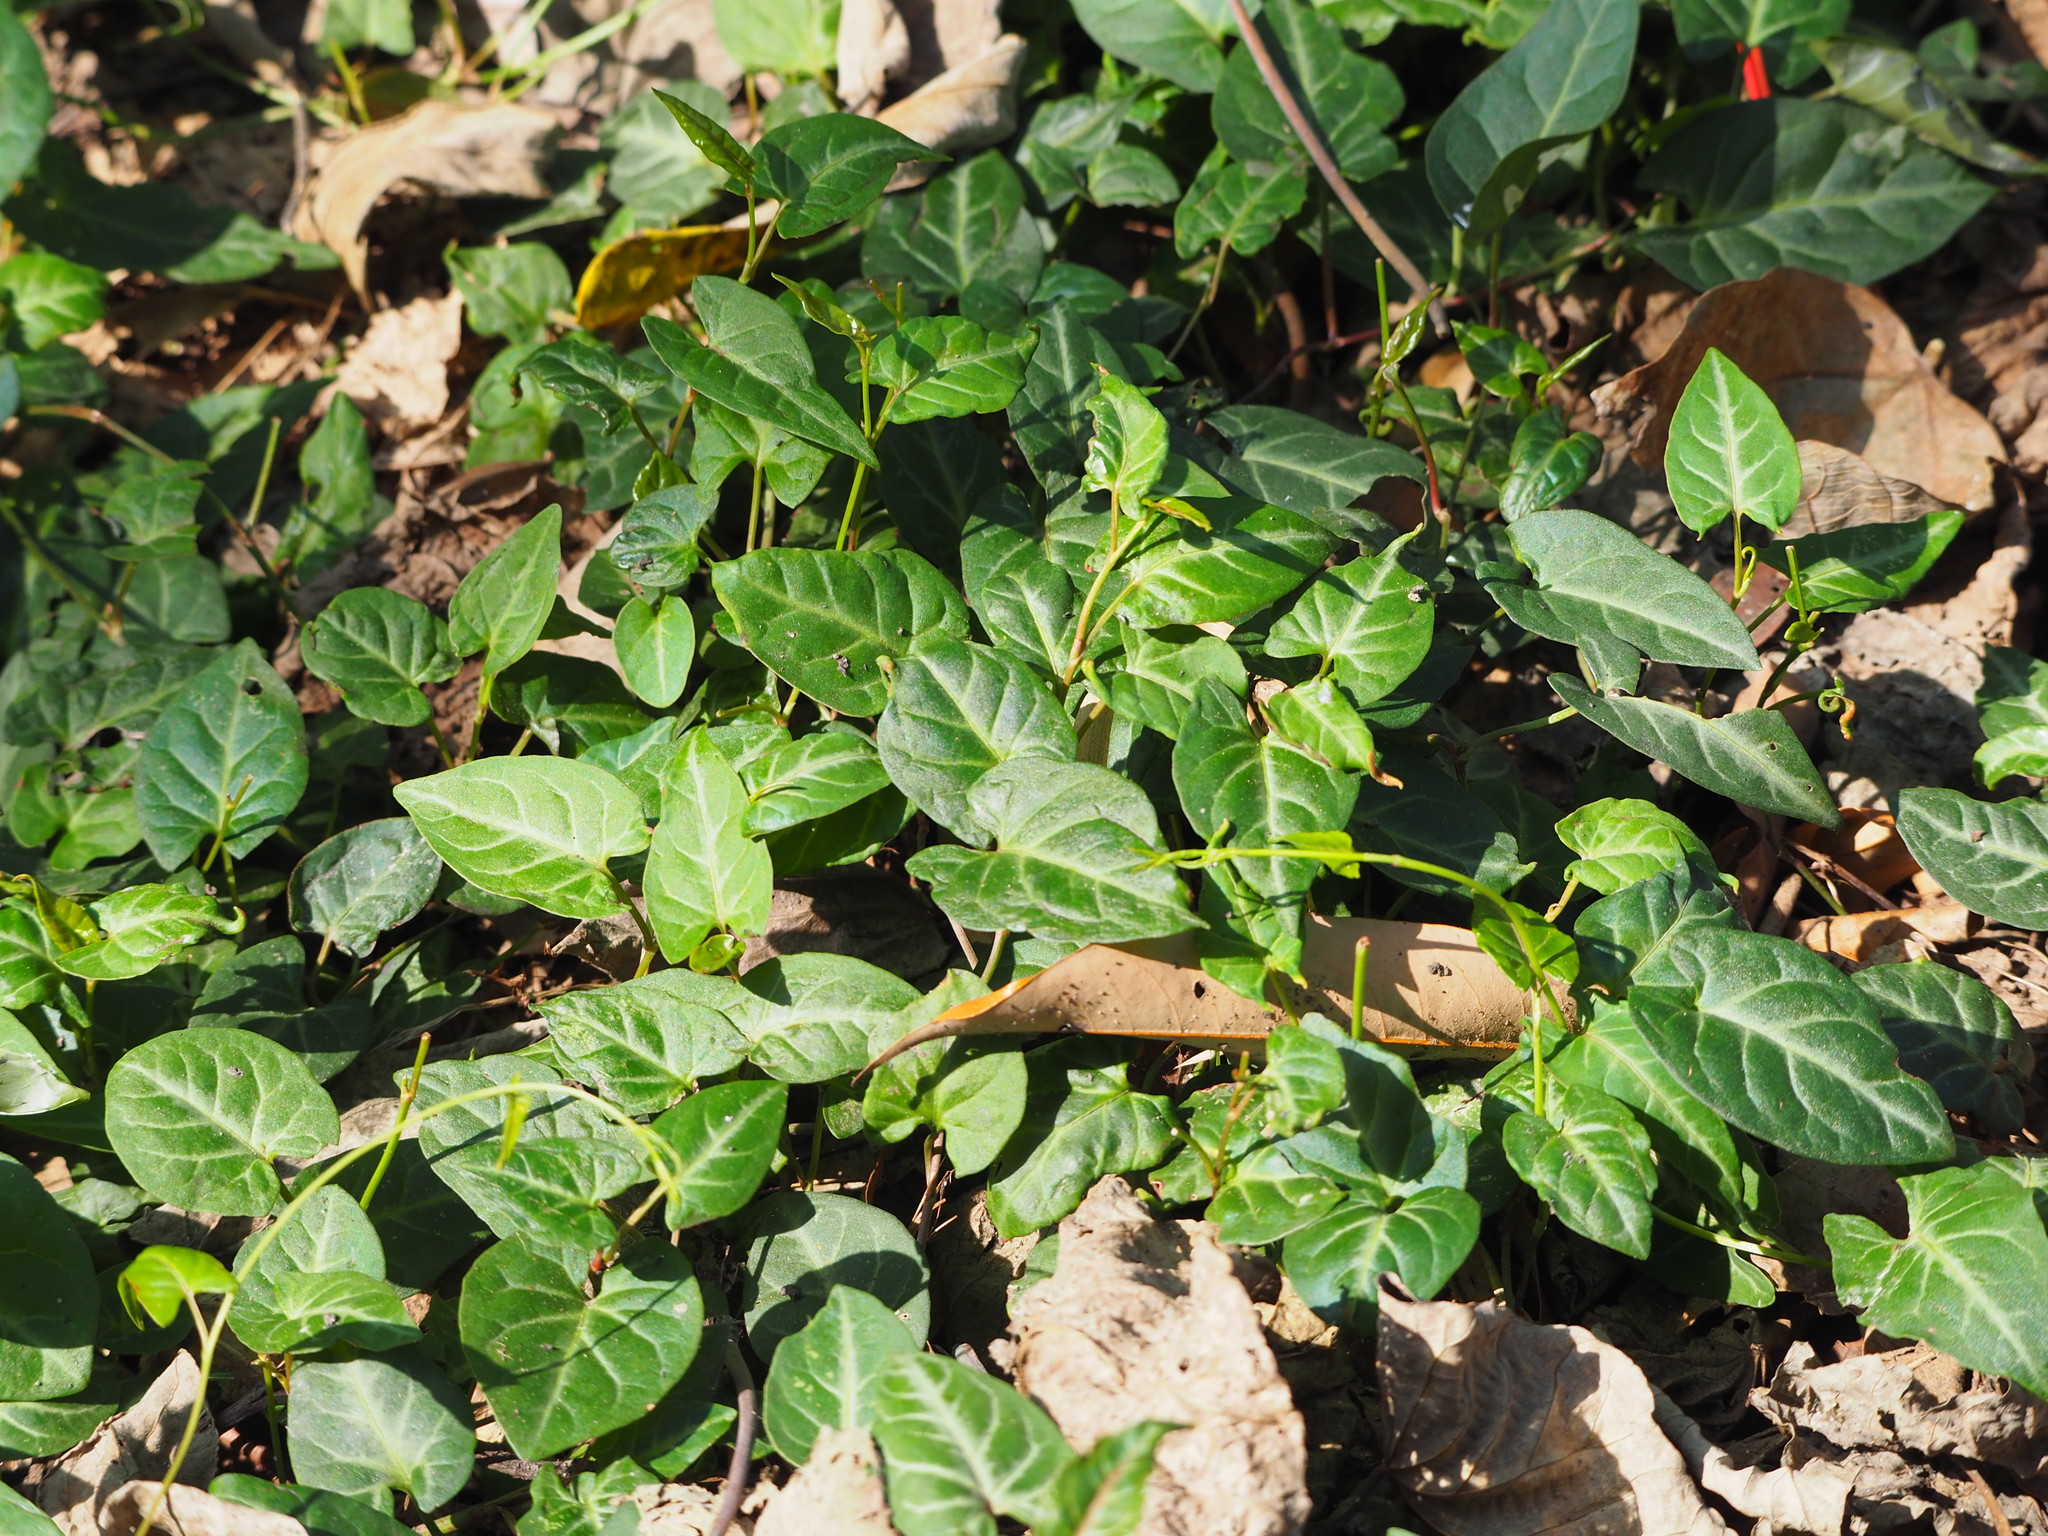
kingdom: Plantae
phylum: Tracheophyta
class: Magnoliopsida
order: Caryophyllales
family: Polygonaceae
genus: Reynoutria
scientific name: Reynoutria multiflora
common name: Chinese fleeceflower
